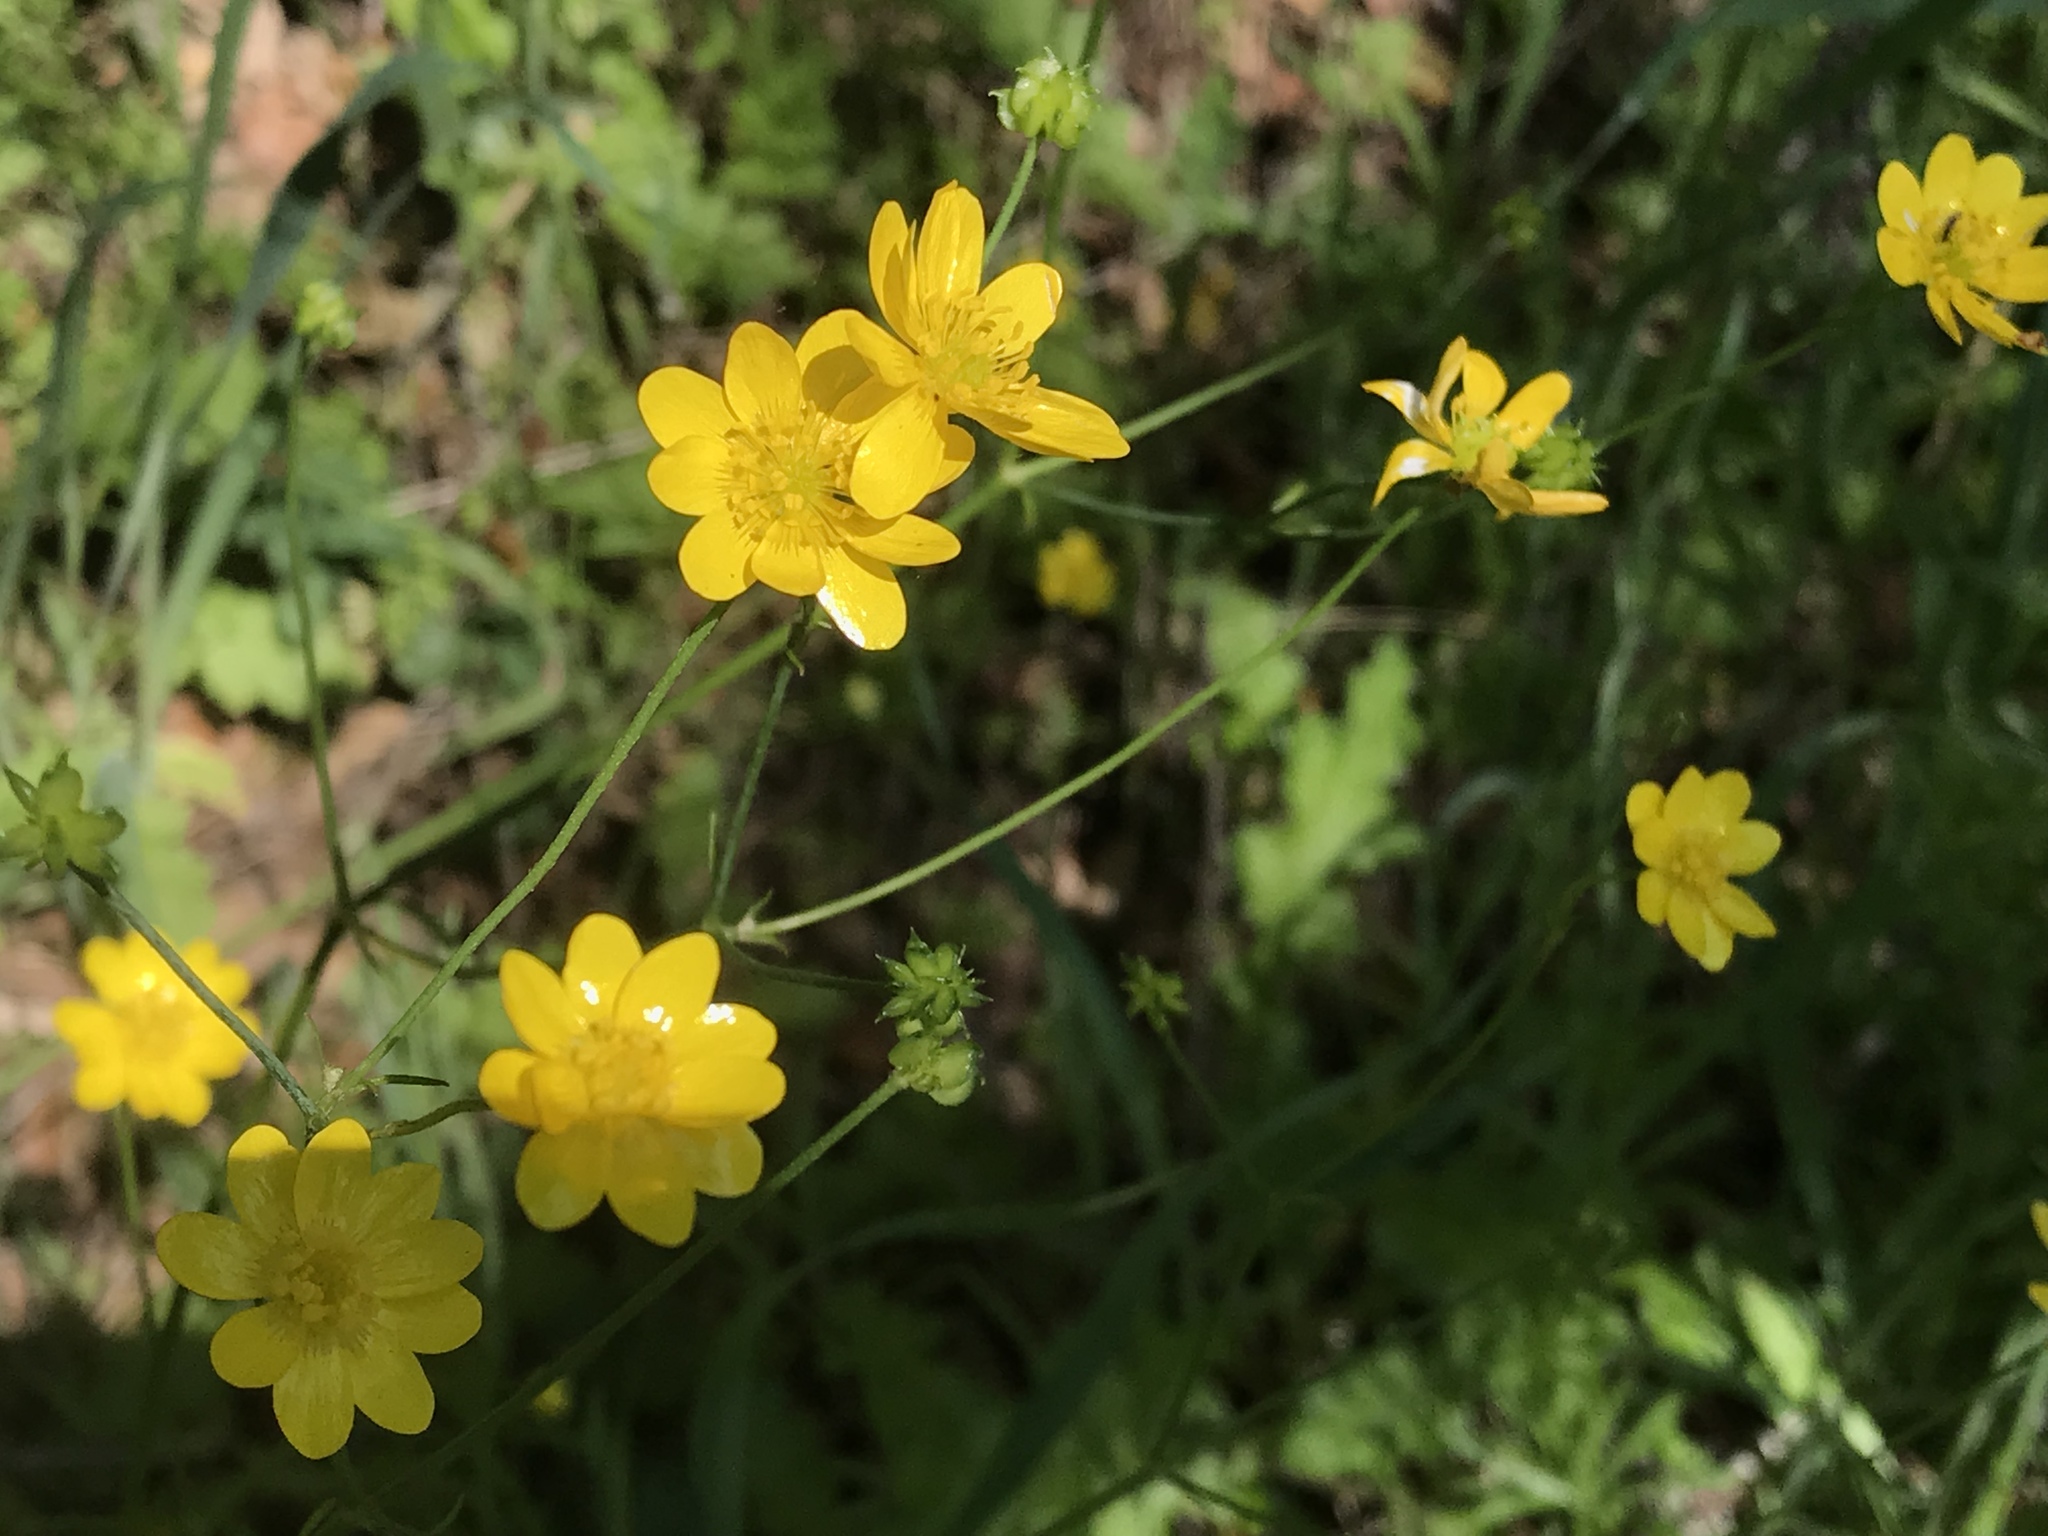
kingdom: Plantae
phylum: Tracheophyta
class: Magnoliopsida
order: Ranunculales
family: Ranunculaceae
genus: Ranunculus
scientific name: Ranunculus californicus
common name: California buttercup
